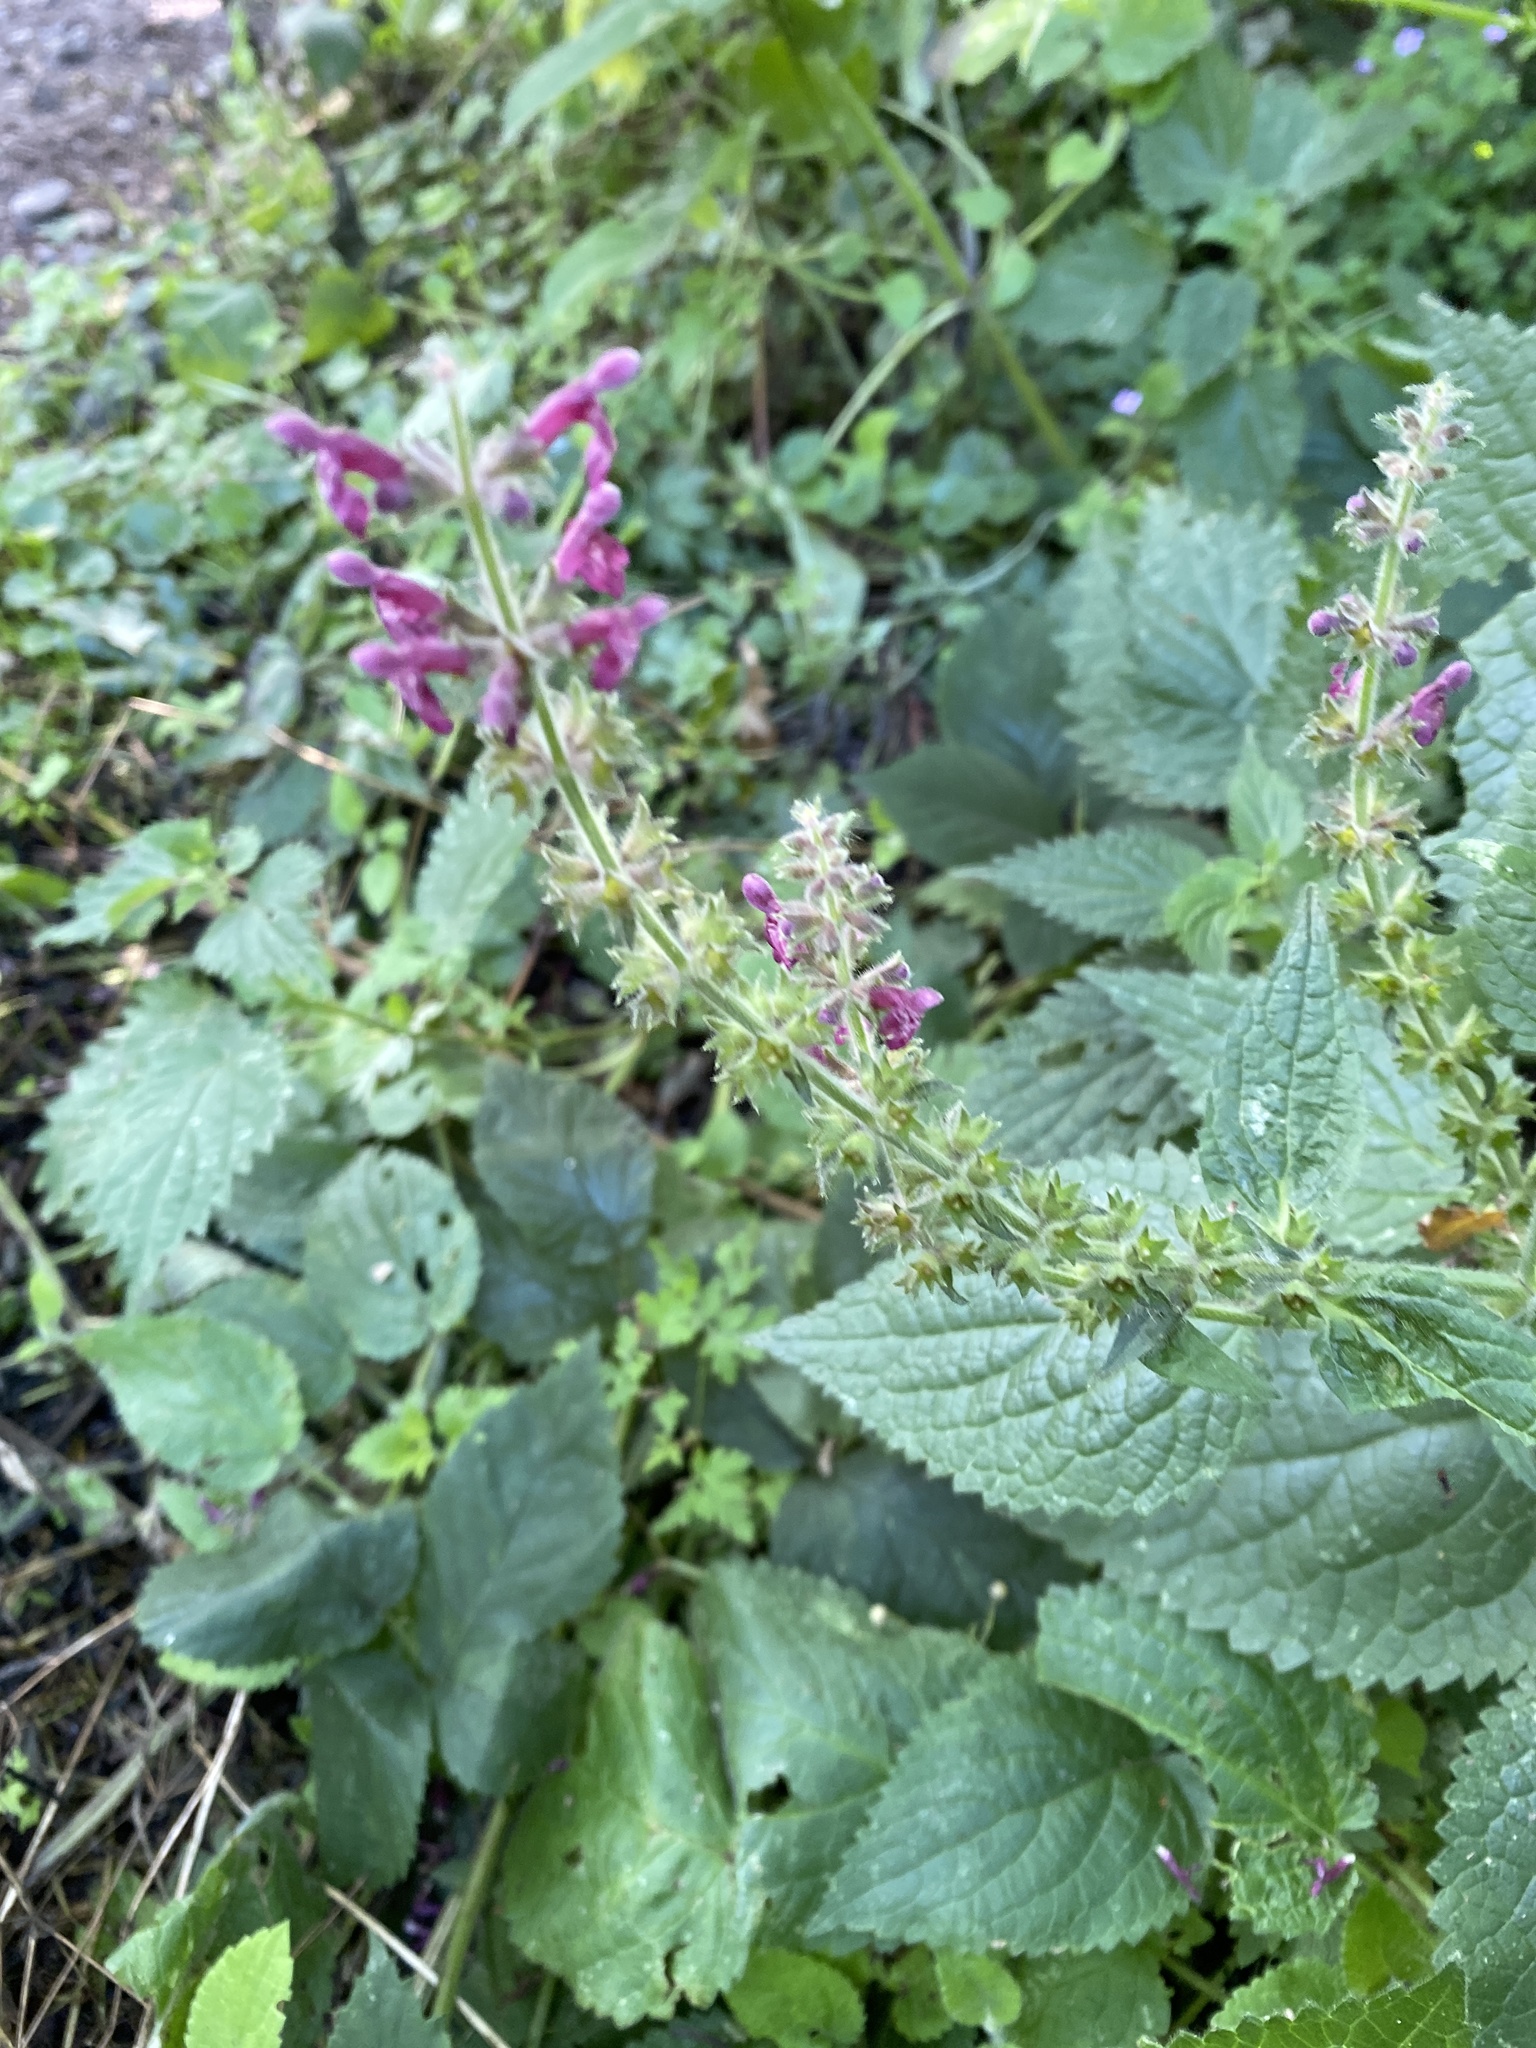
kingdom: Plantae
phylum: Tracheophyta
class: Magnoliopsida
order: Lamiales
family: Lamiaceae
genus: Stachys
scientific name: Stachys sylvatica
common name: Hedge woundwort
